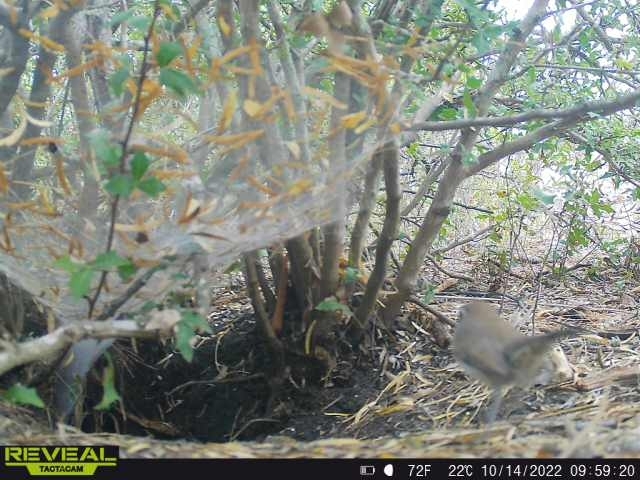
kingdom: Animalia
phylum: Chordata
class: Aves
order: Passeriformes
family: Troglodytidae
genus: Thryomanes
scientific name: Thryomanes bewickii
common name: Bewick's wren
